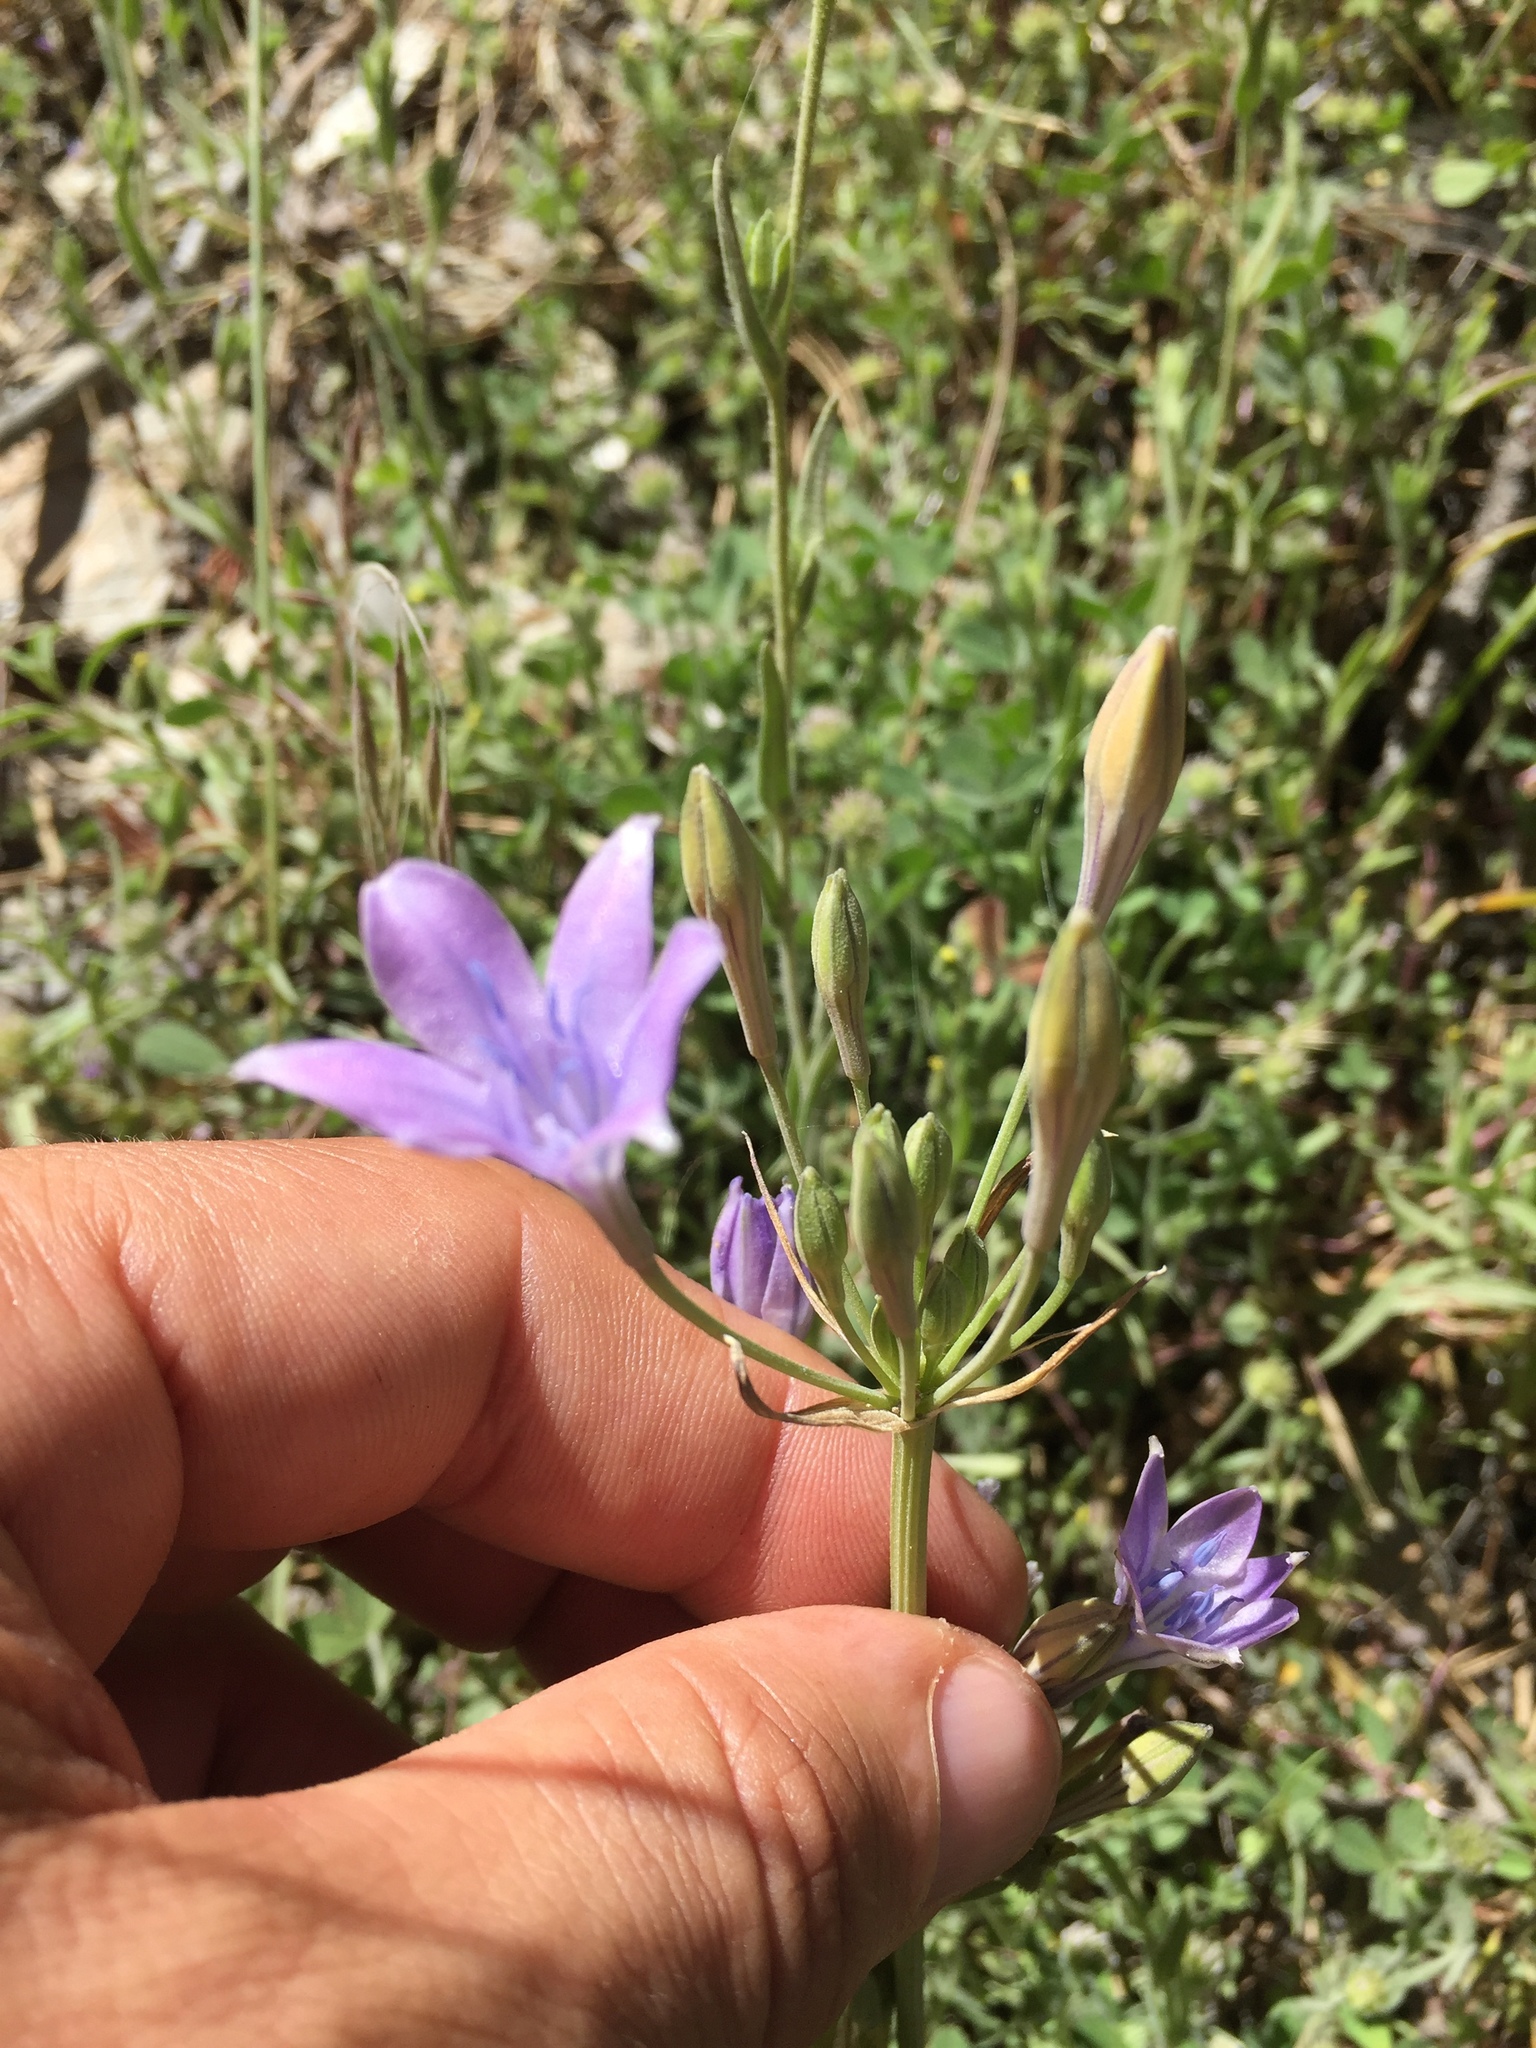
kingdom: Plantae
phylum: Tracheophyta
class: Liliopsida
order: Asparagales
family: Asparagaceae
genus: Triteleia
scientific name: Triteleia laxa
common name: Triplet-lily
